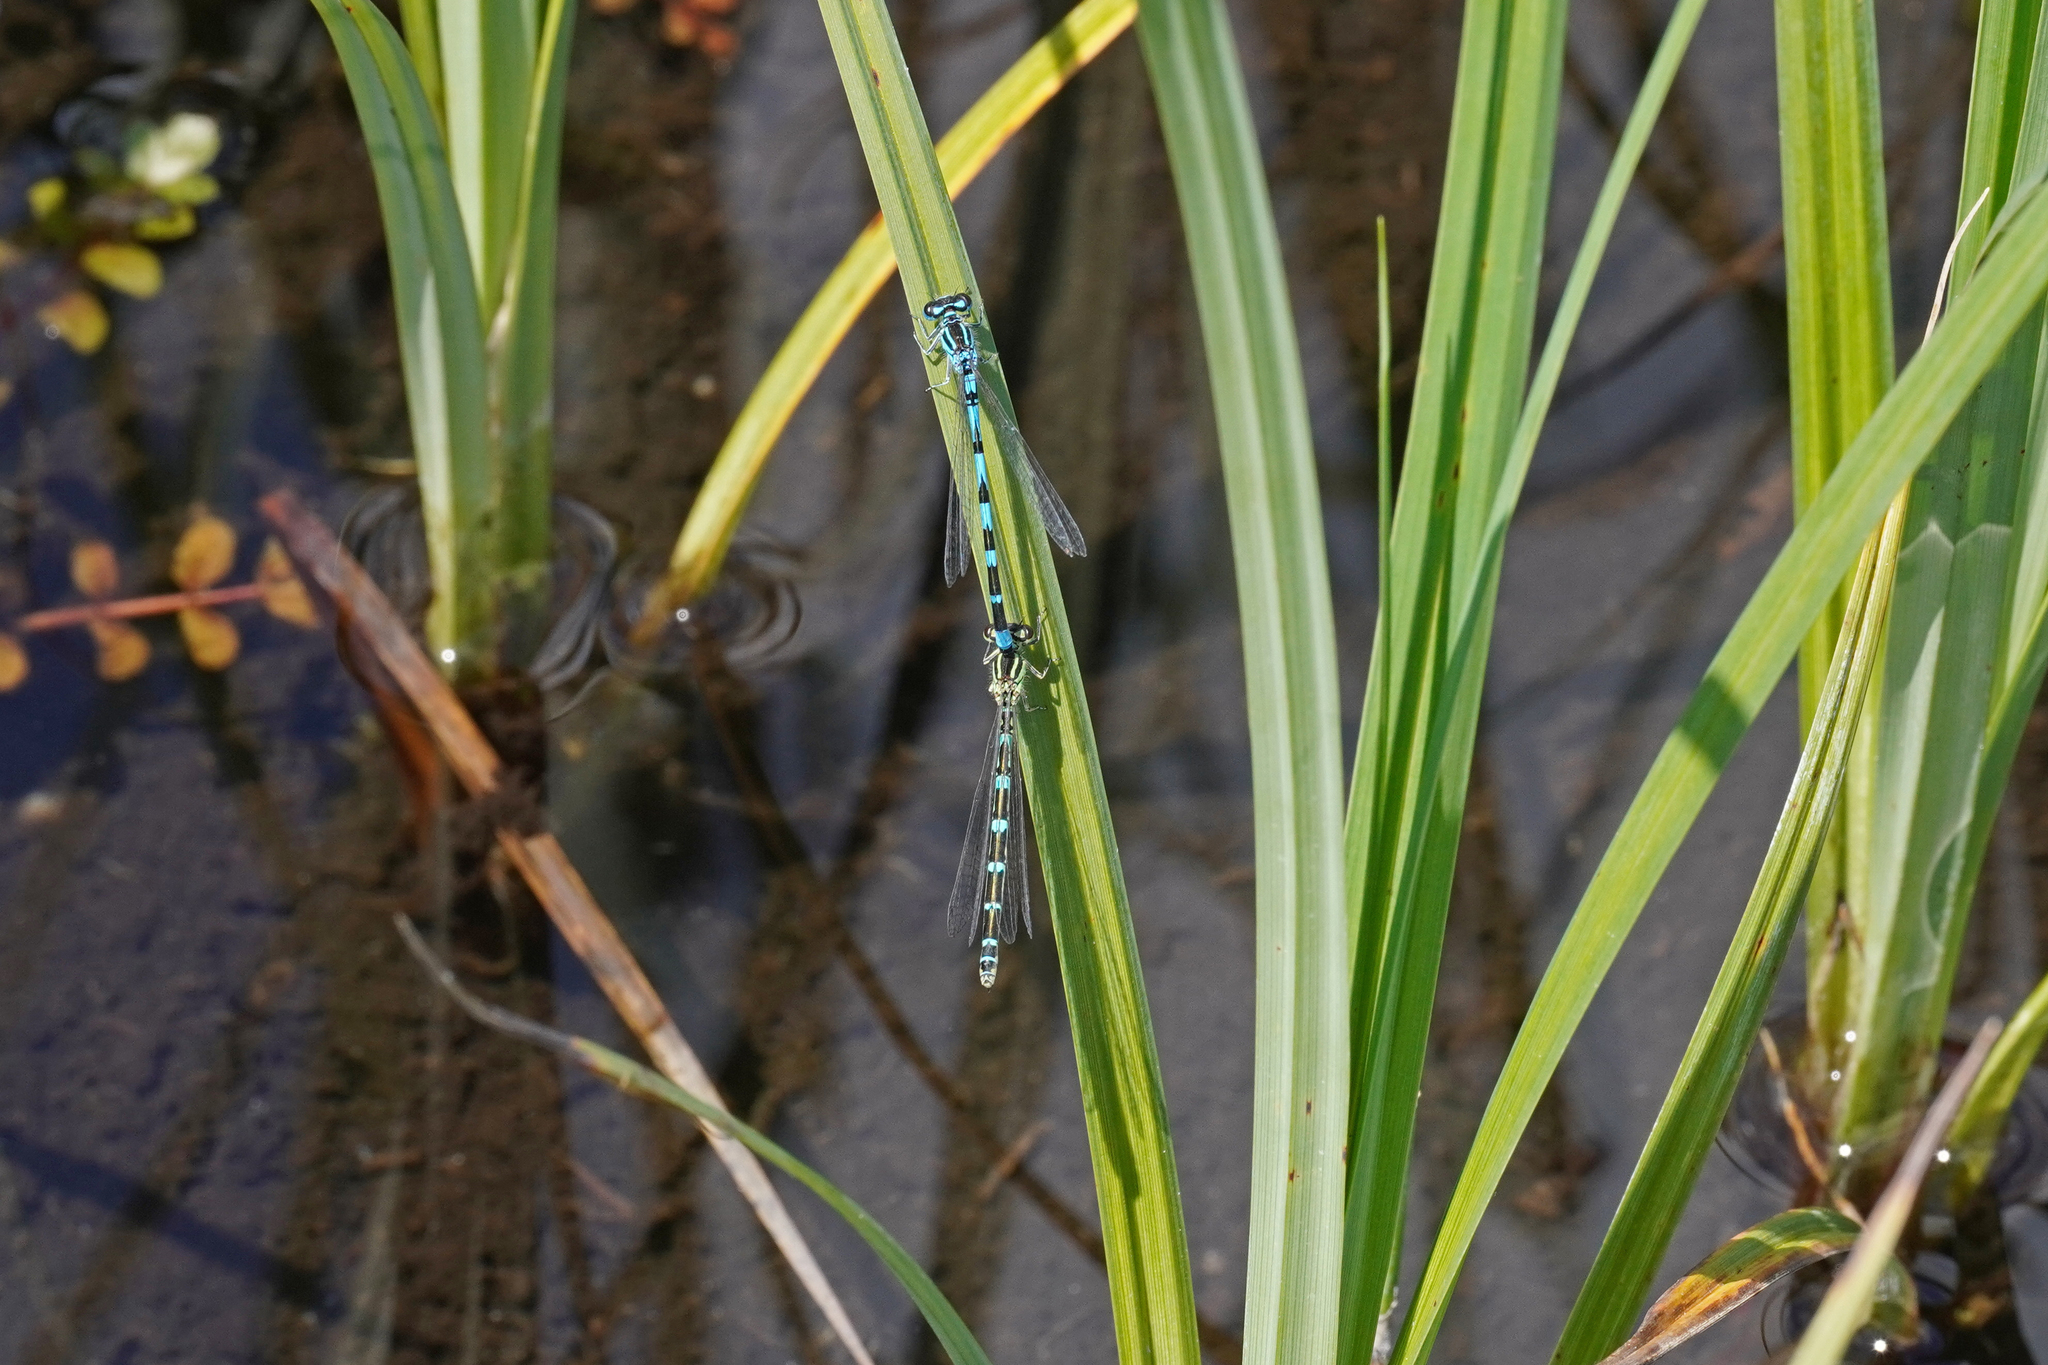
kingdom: Animalia
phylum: Arthropoda
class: Insecta
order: Odonata
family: Coenagrionidae
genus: Coenagrion
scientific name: Coenagrion ornatum
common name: Ornate bluet
